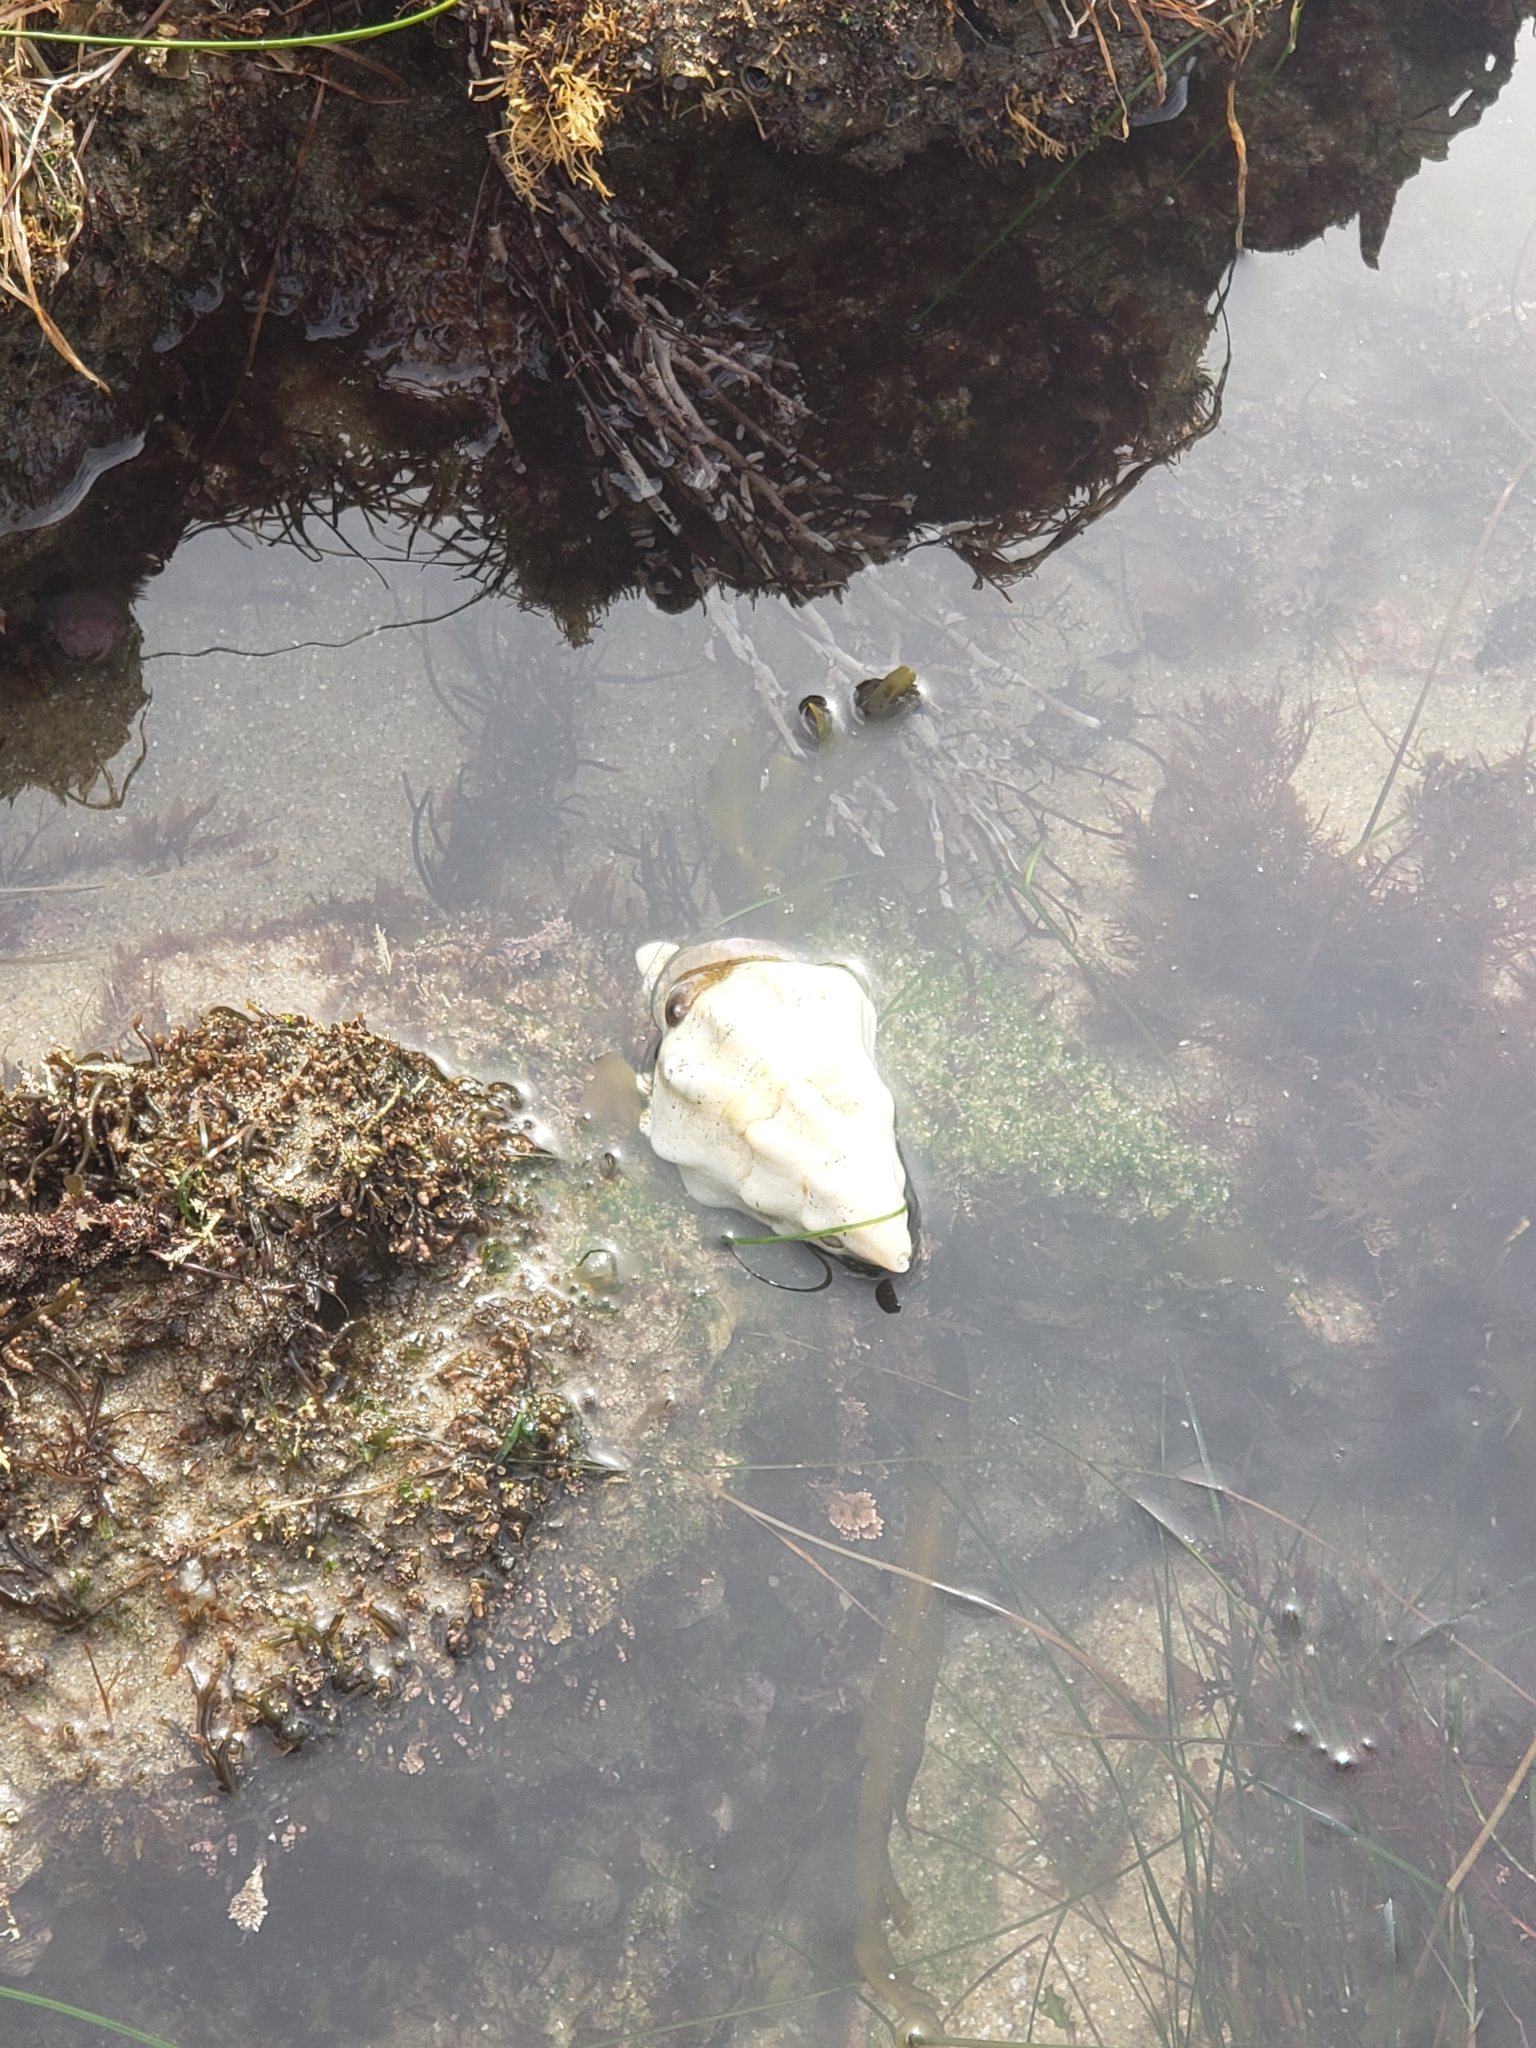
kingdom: Animalia
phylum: Mollusca
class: Gastropoda
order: Neogastropoda
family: Austrosiphonidae
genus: Kelletia
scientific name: Kelletia kelletii
